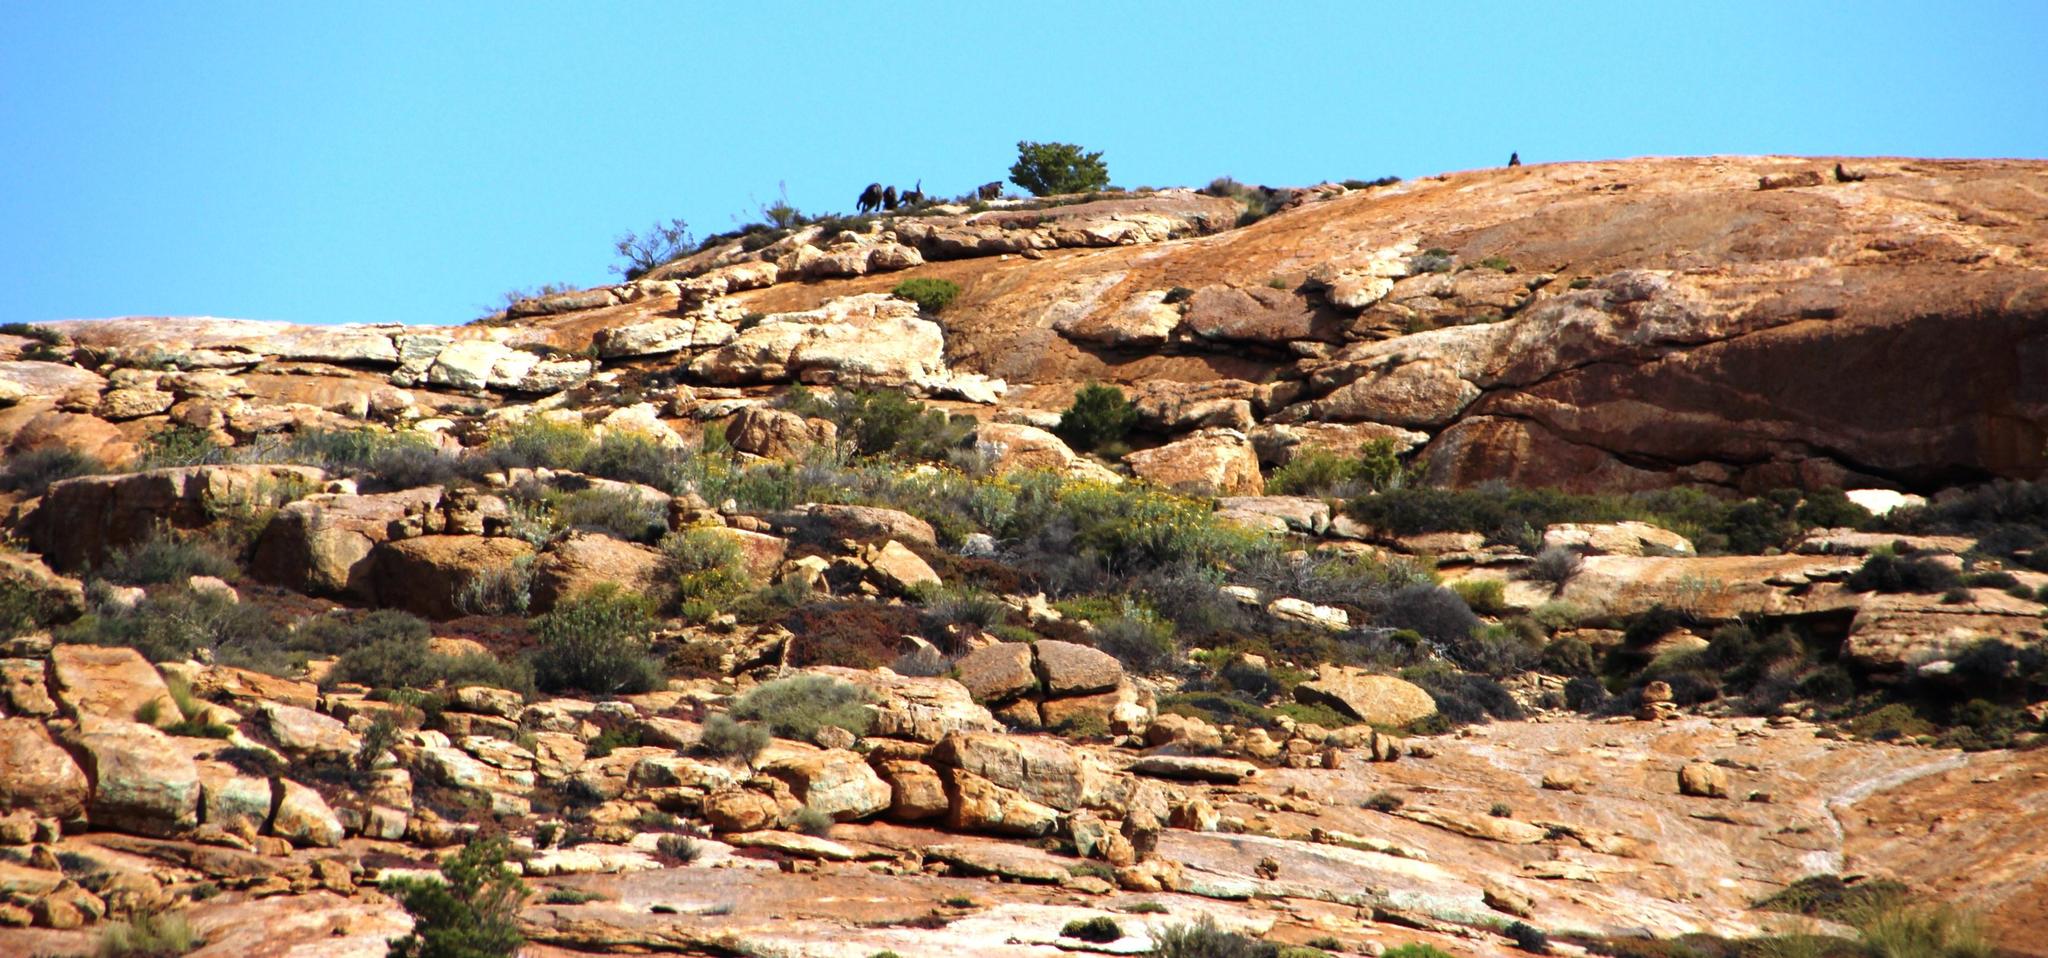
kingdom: Animalia
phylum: Chordata
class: Mammalia
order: Primates
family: Cercopithecidae
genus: Papio
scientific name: Papio ursinus
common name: Chacma baboon
